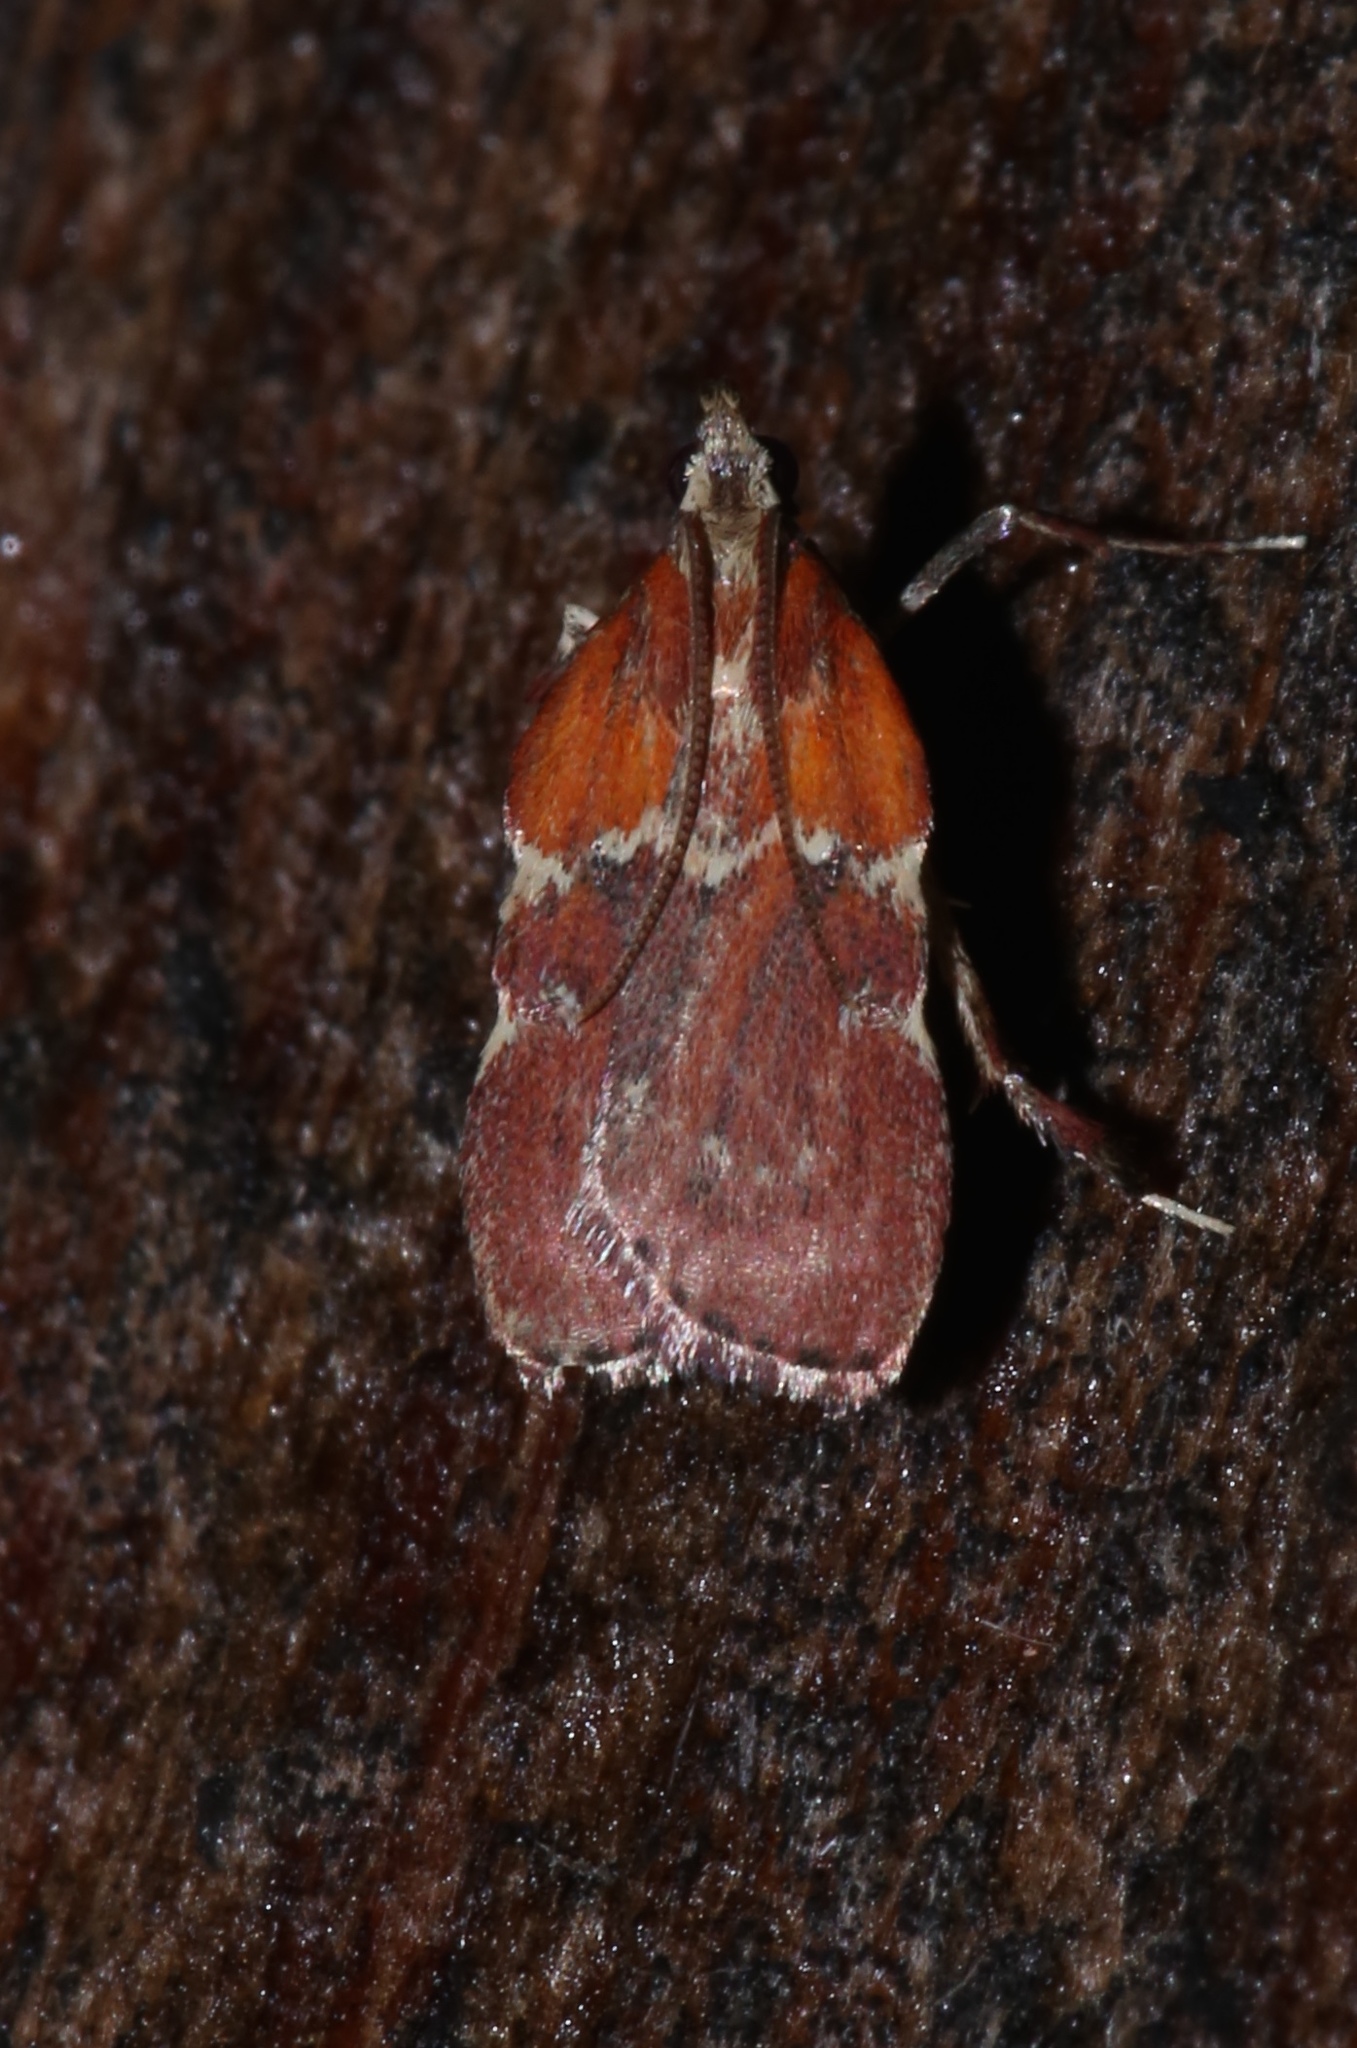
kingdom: Animalia
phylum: Arthropoda
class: Insecta
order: Lepidoptera
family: Pyralidae
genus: Galasa
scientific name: Galasa nigrinodis
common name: Boxwood leaftier moth
